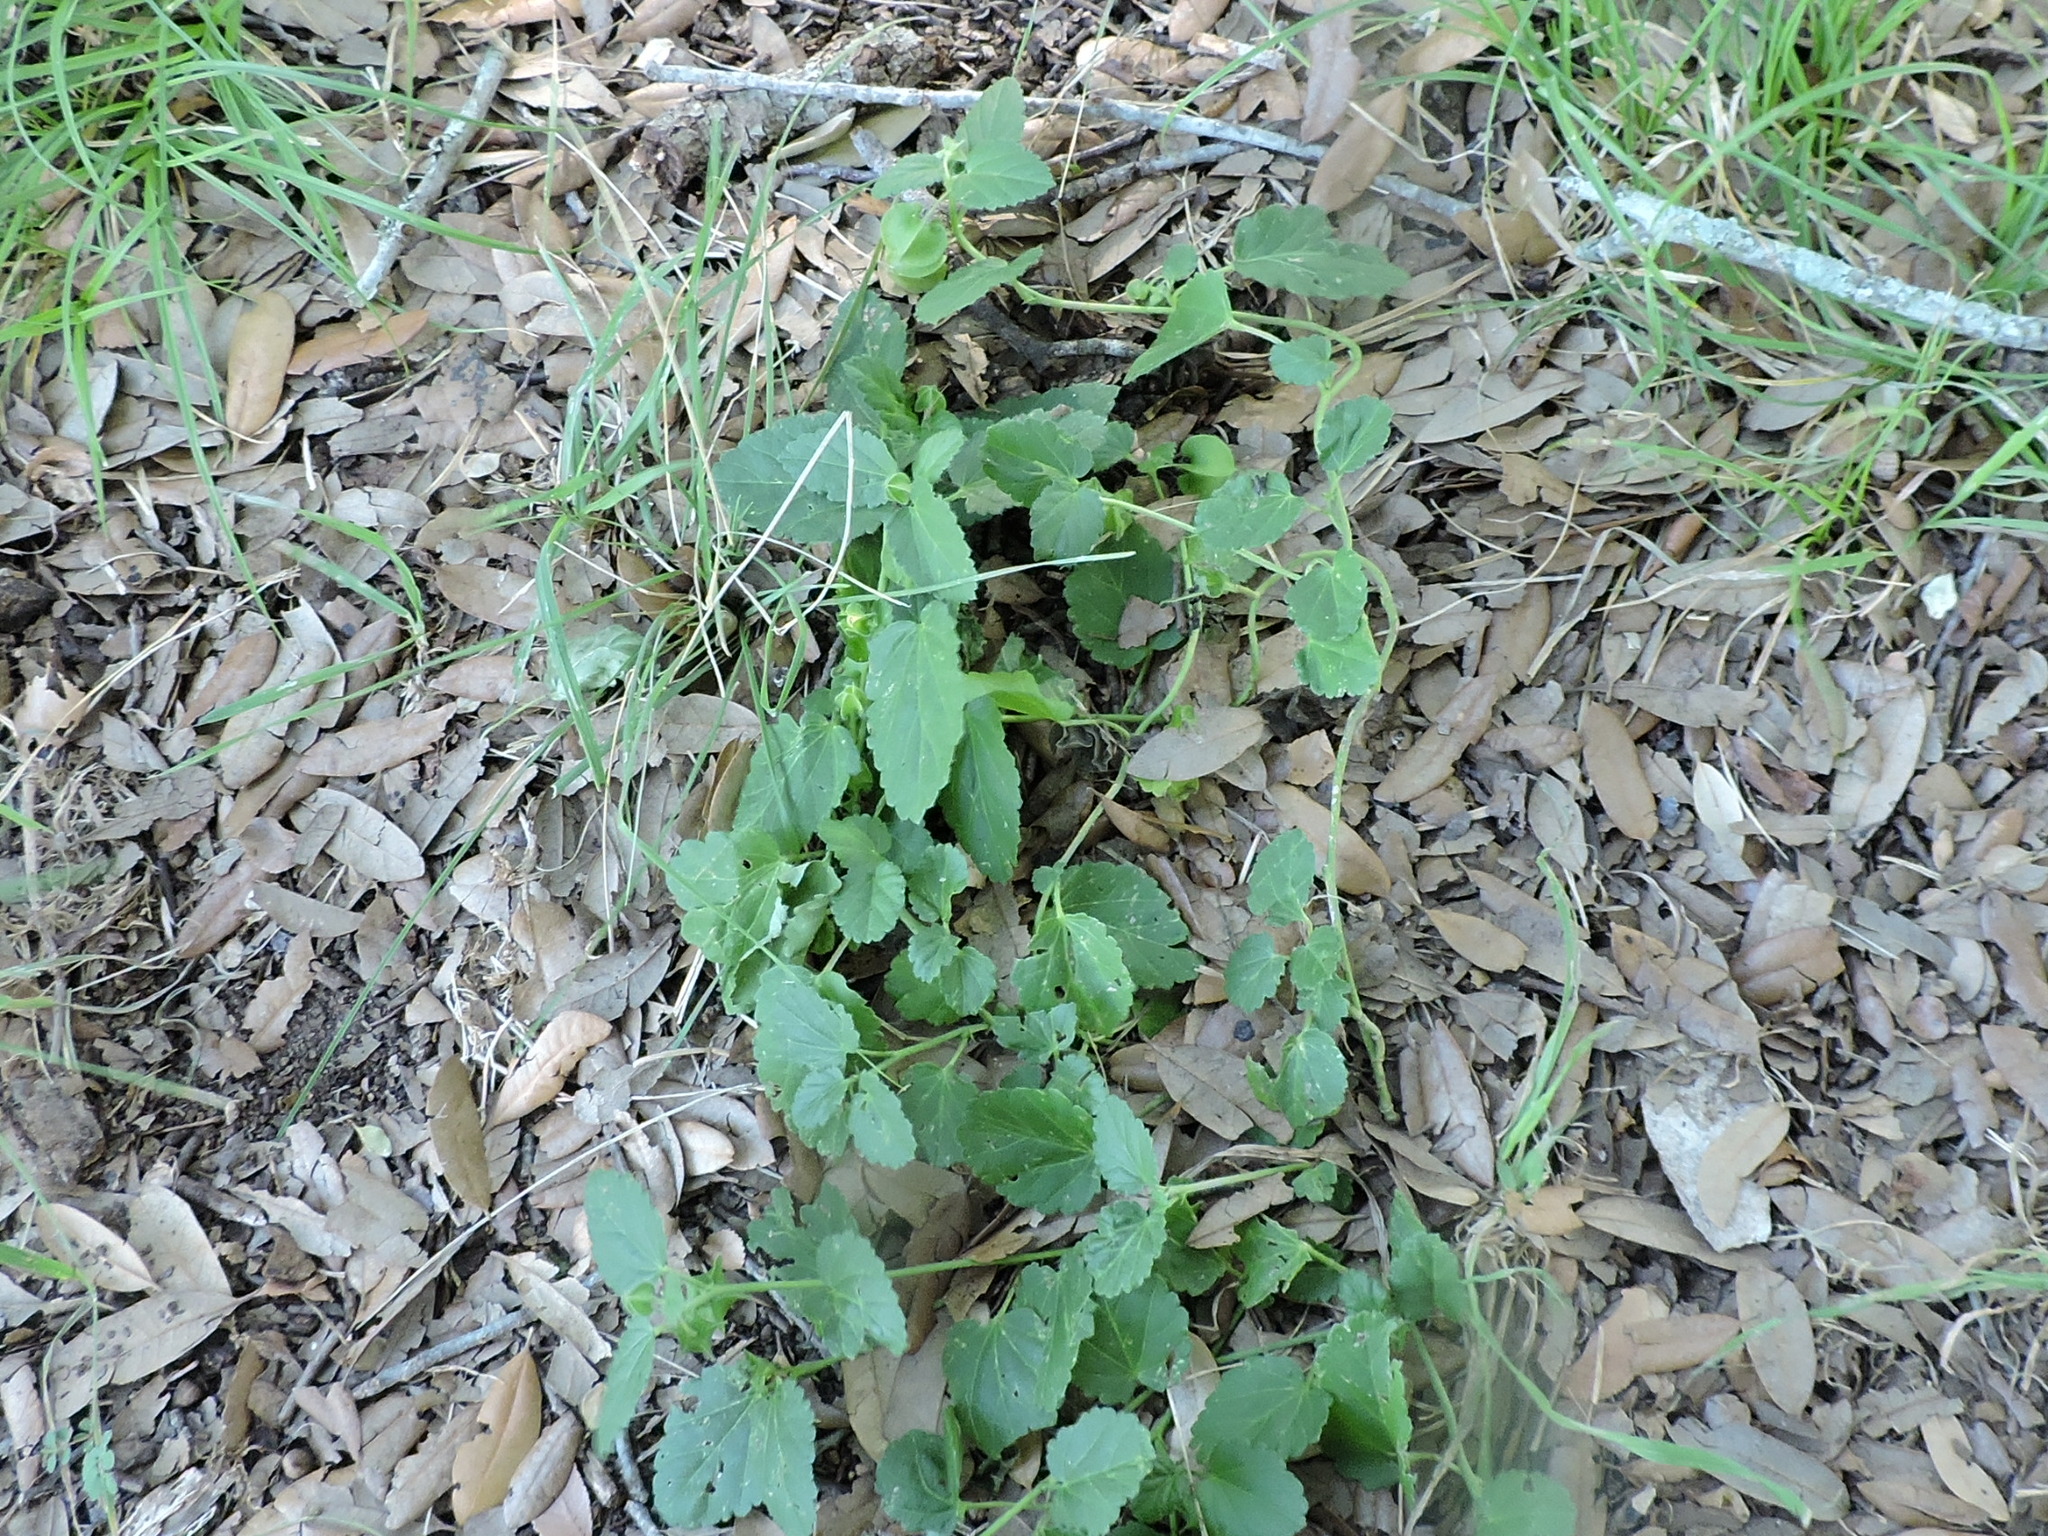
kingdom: Plantae
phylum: Tracheophyta
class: Magnoliopsida
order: Malvales
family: Malvaceae
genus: Rhynchosida
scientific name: Rhynchosida physocalyx
